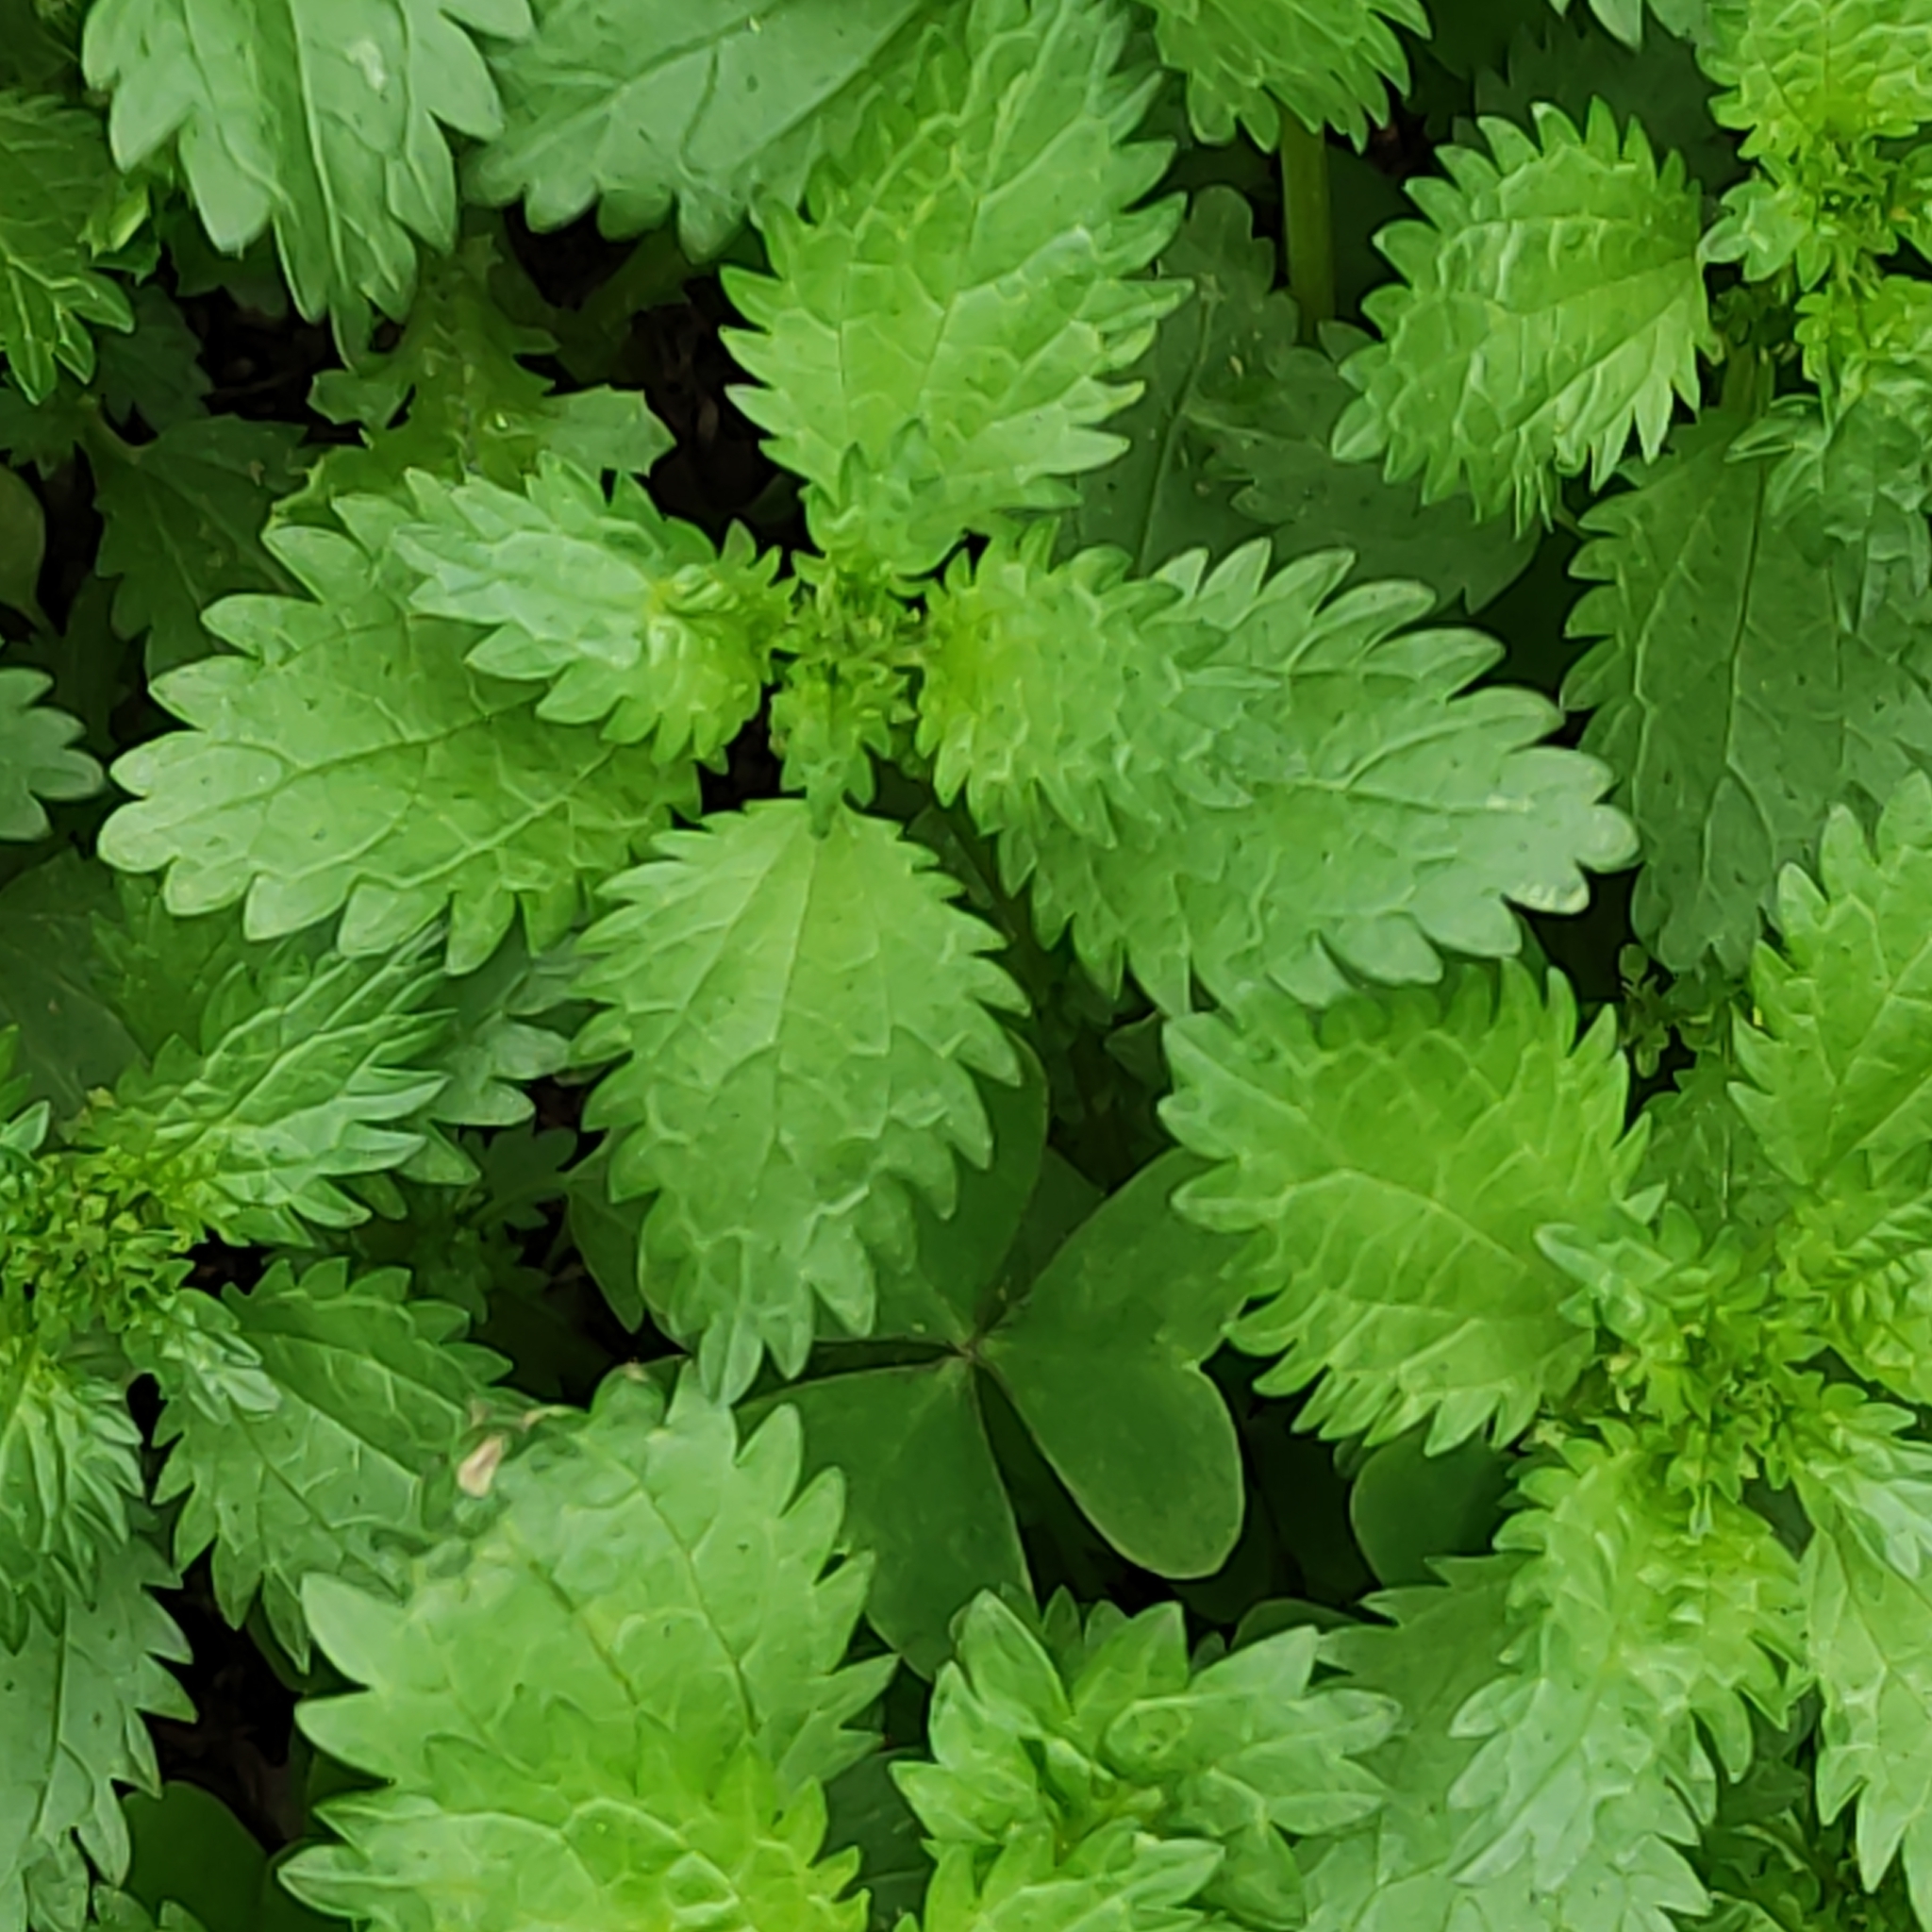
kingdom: Plantae
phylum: Tracheophyta
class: Magnoliopsida
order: Rosales
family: Urticaceae
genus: Urtica
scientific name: Urtica urens
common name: Dwarf nettle
